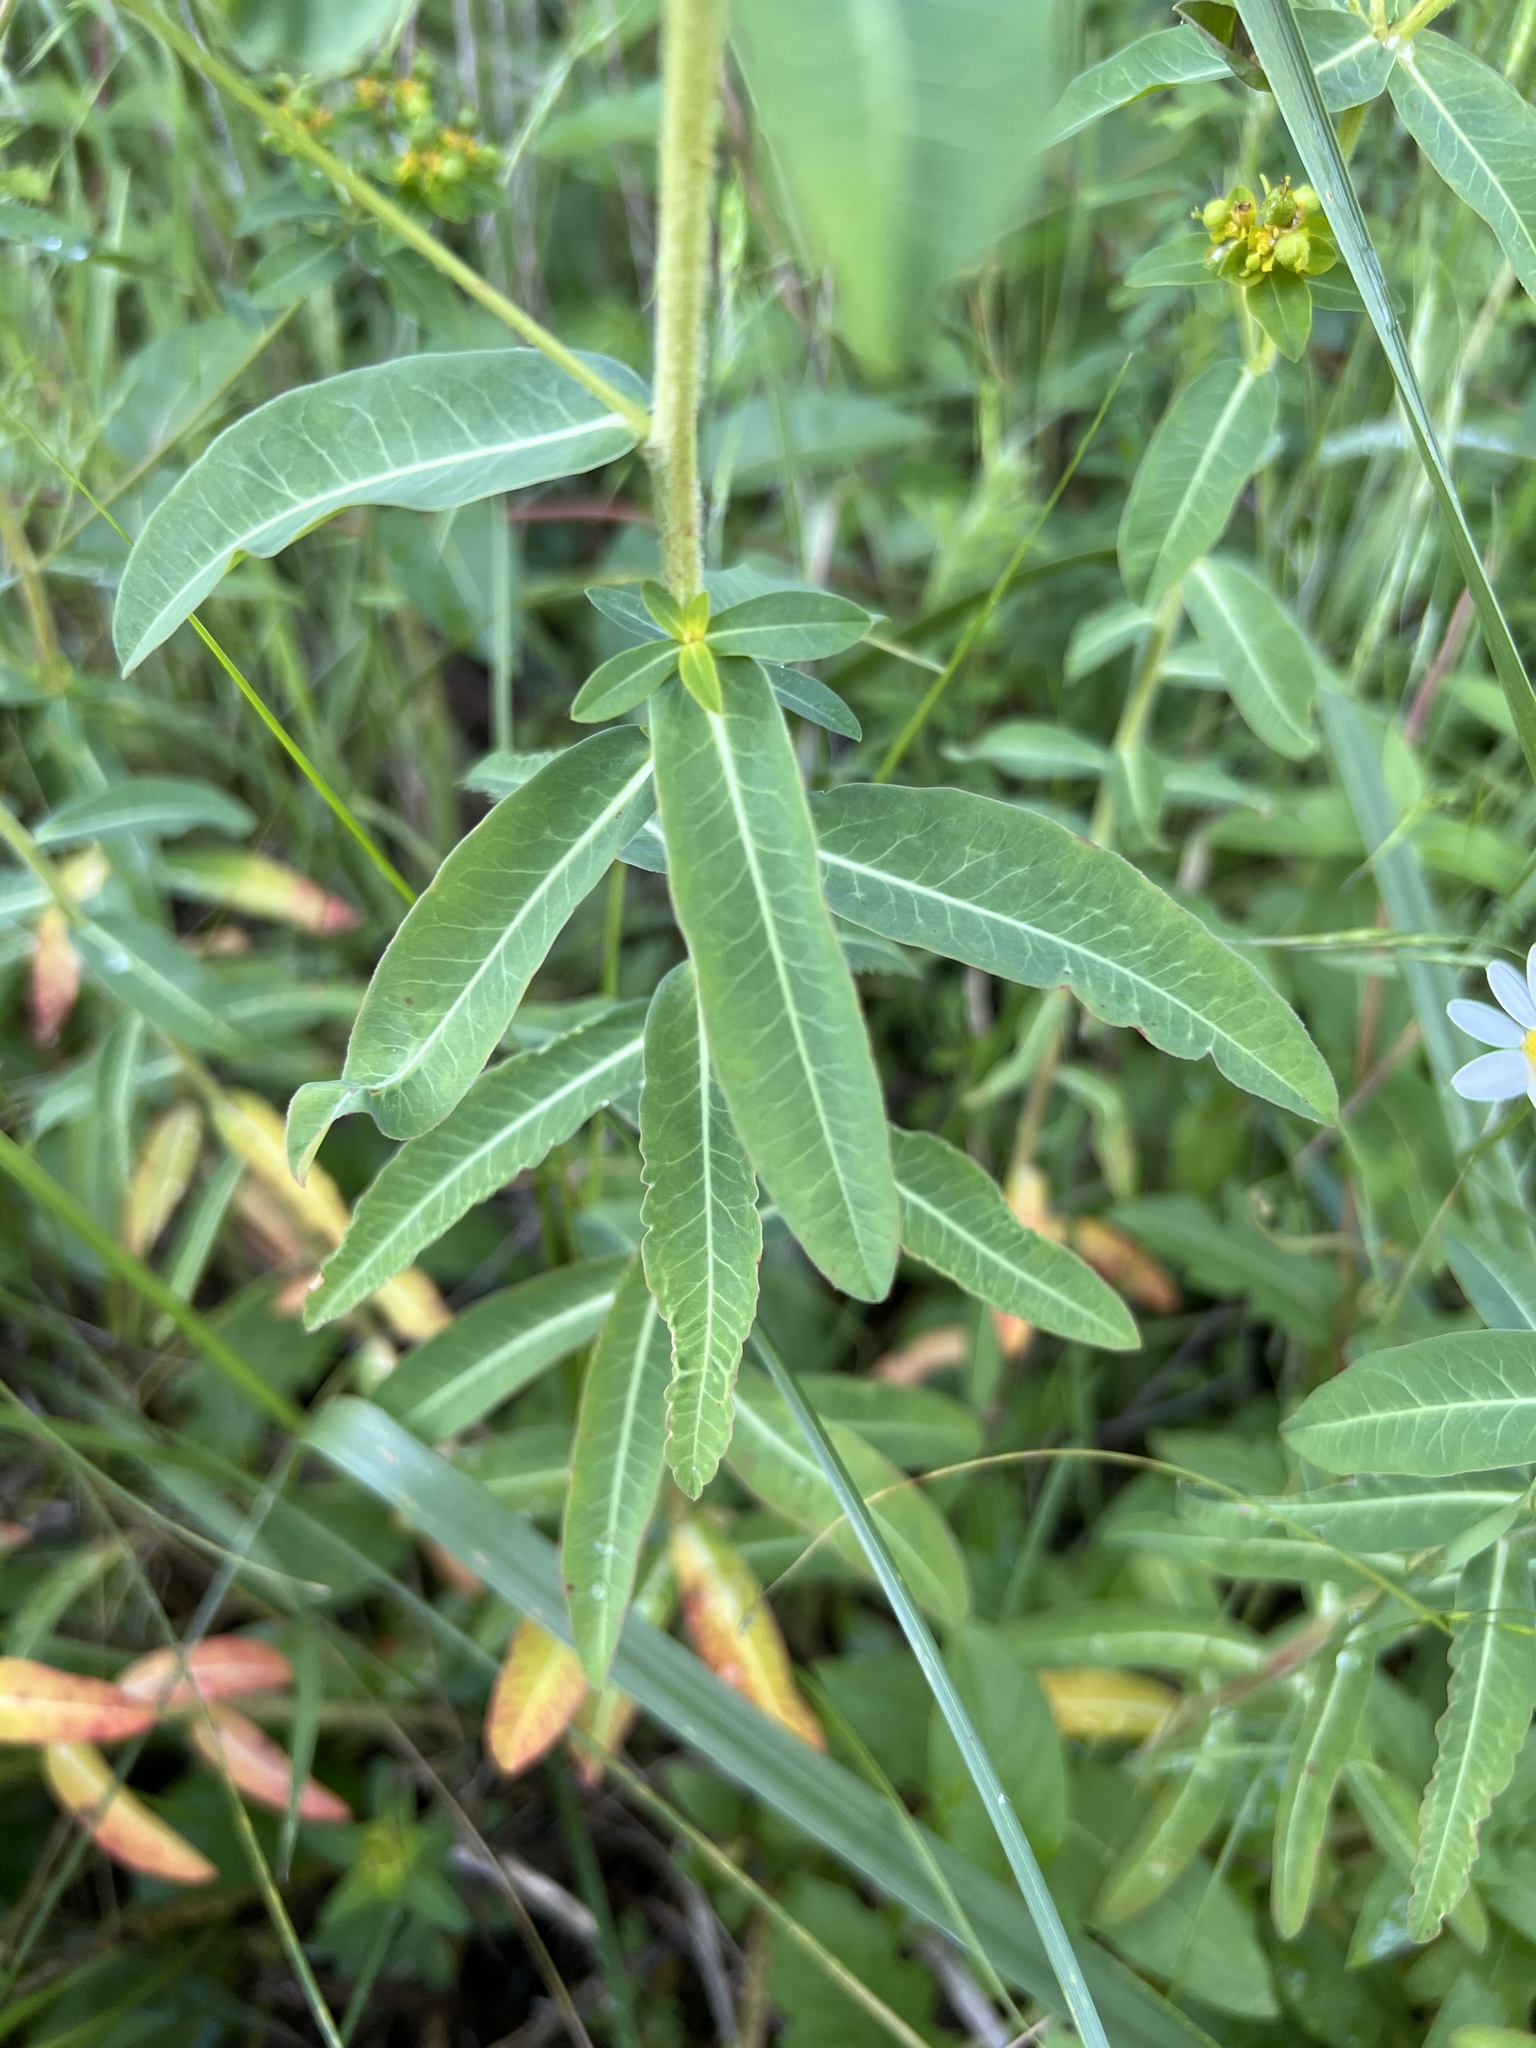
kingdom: Plantae
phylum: Tracheophyta
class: Magnoliopsida
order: Malpighiales
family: Euphorbiaceae
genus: Euphorbia
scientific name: Euphorbia oblongata
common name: Balkan spurge
